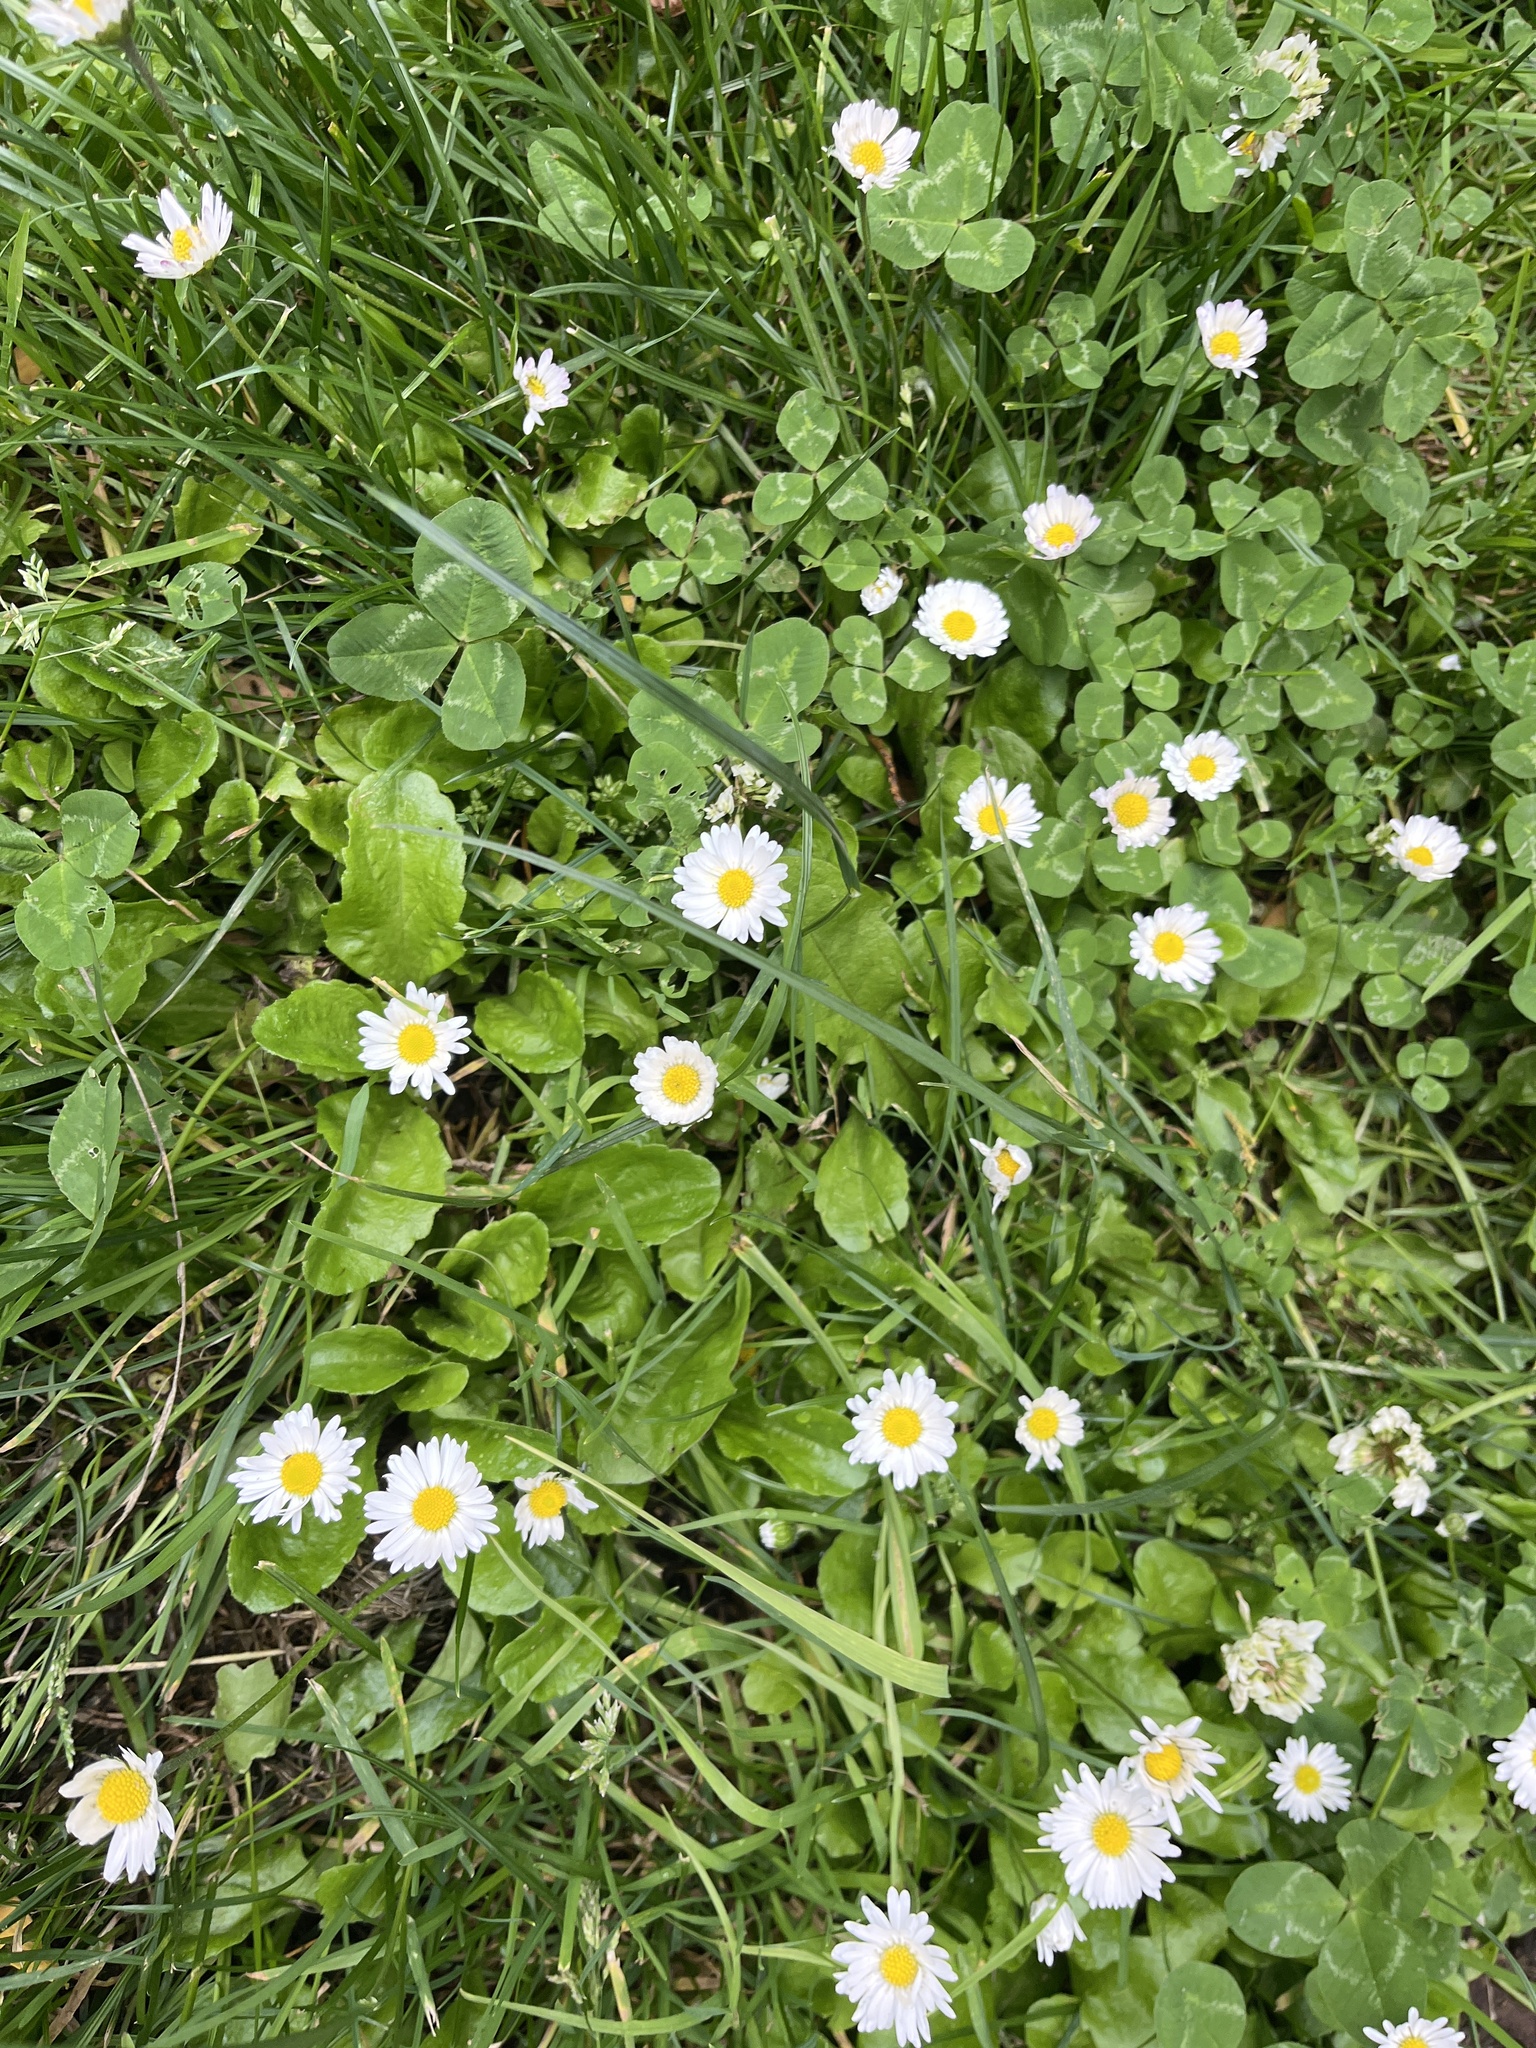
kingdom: Plantae
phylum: Tracheophyta
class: Magnoliopsida
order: Asterales
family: Asteraceae
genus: Bellis
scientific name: Bellis perennis
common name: Lawndaisy
